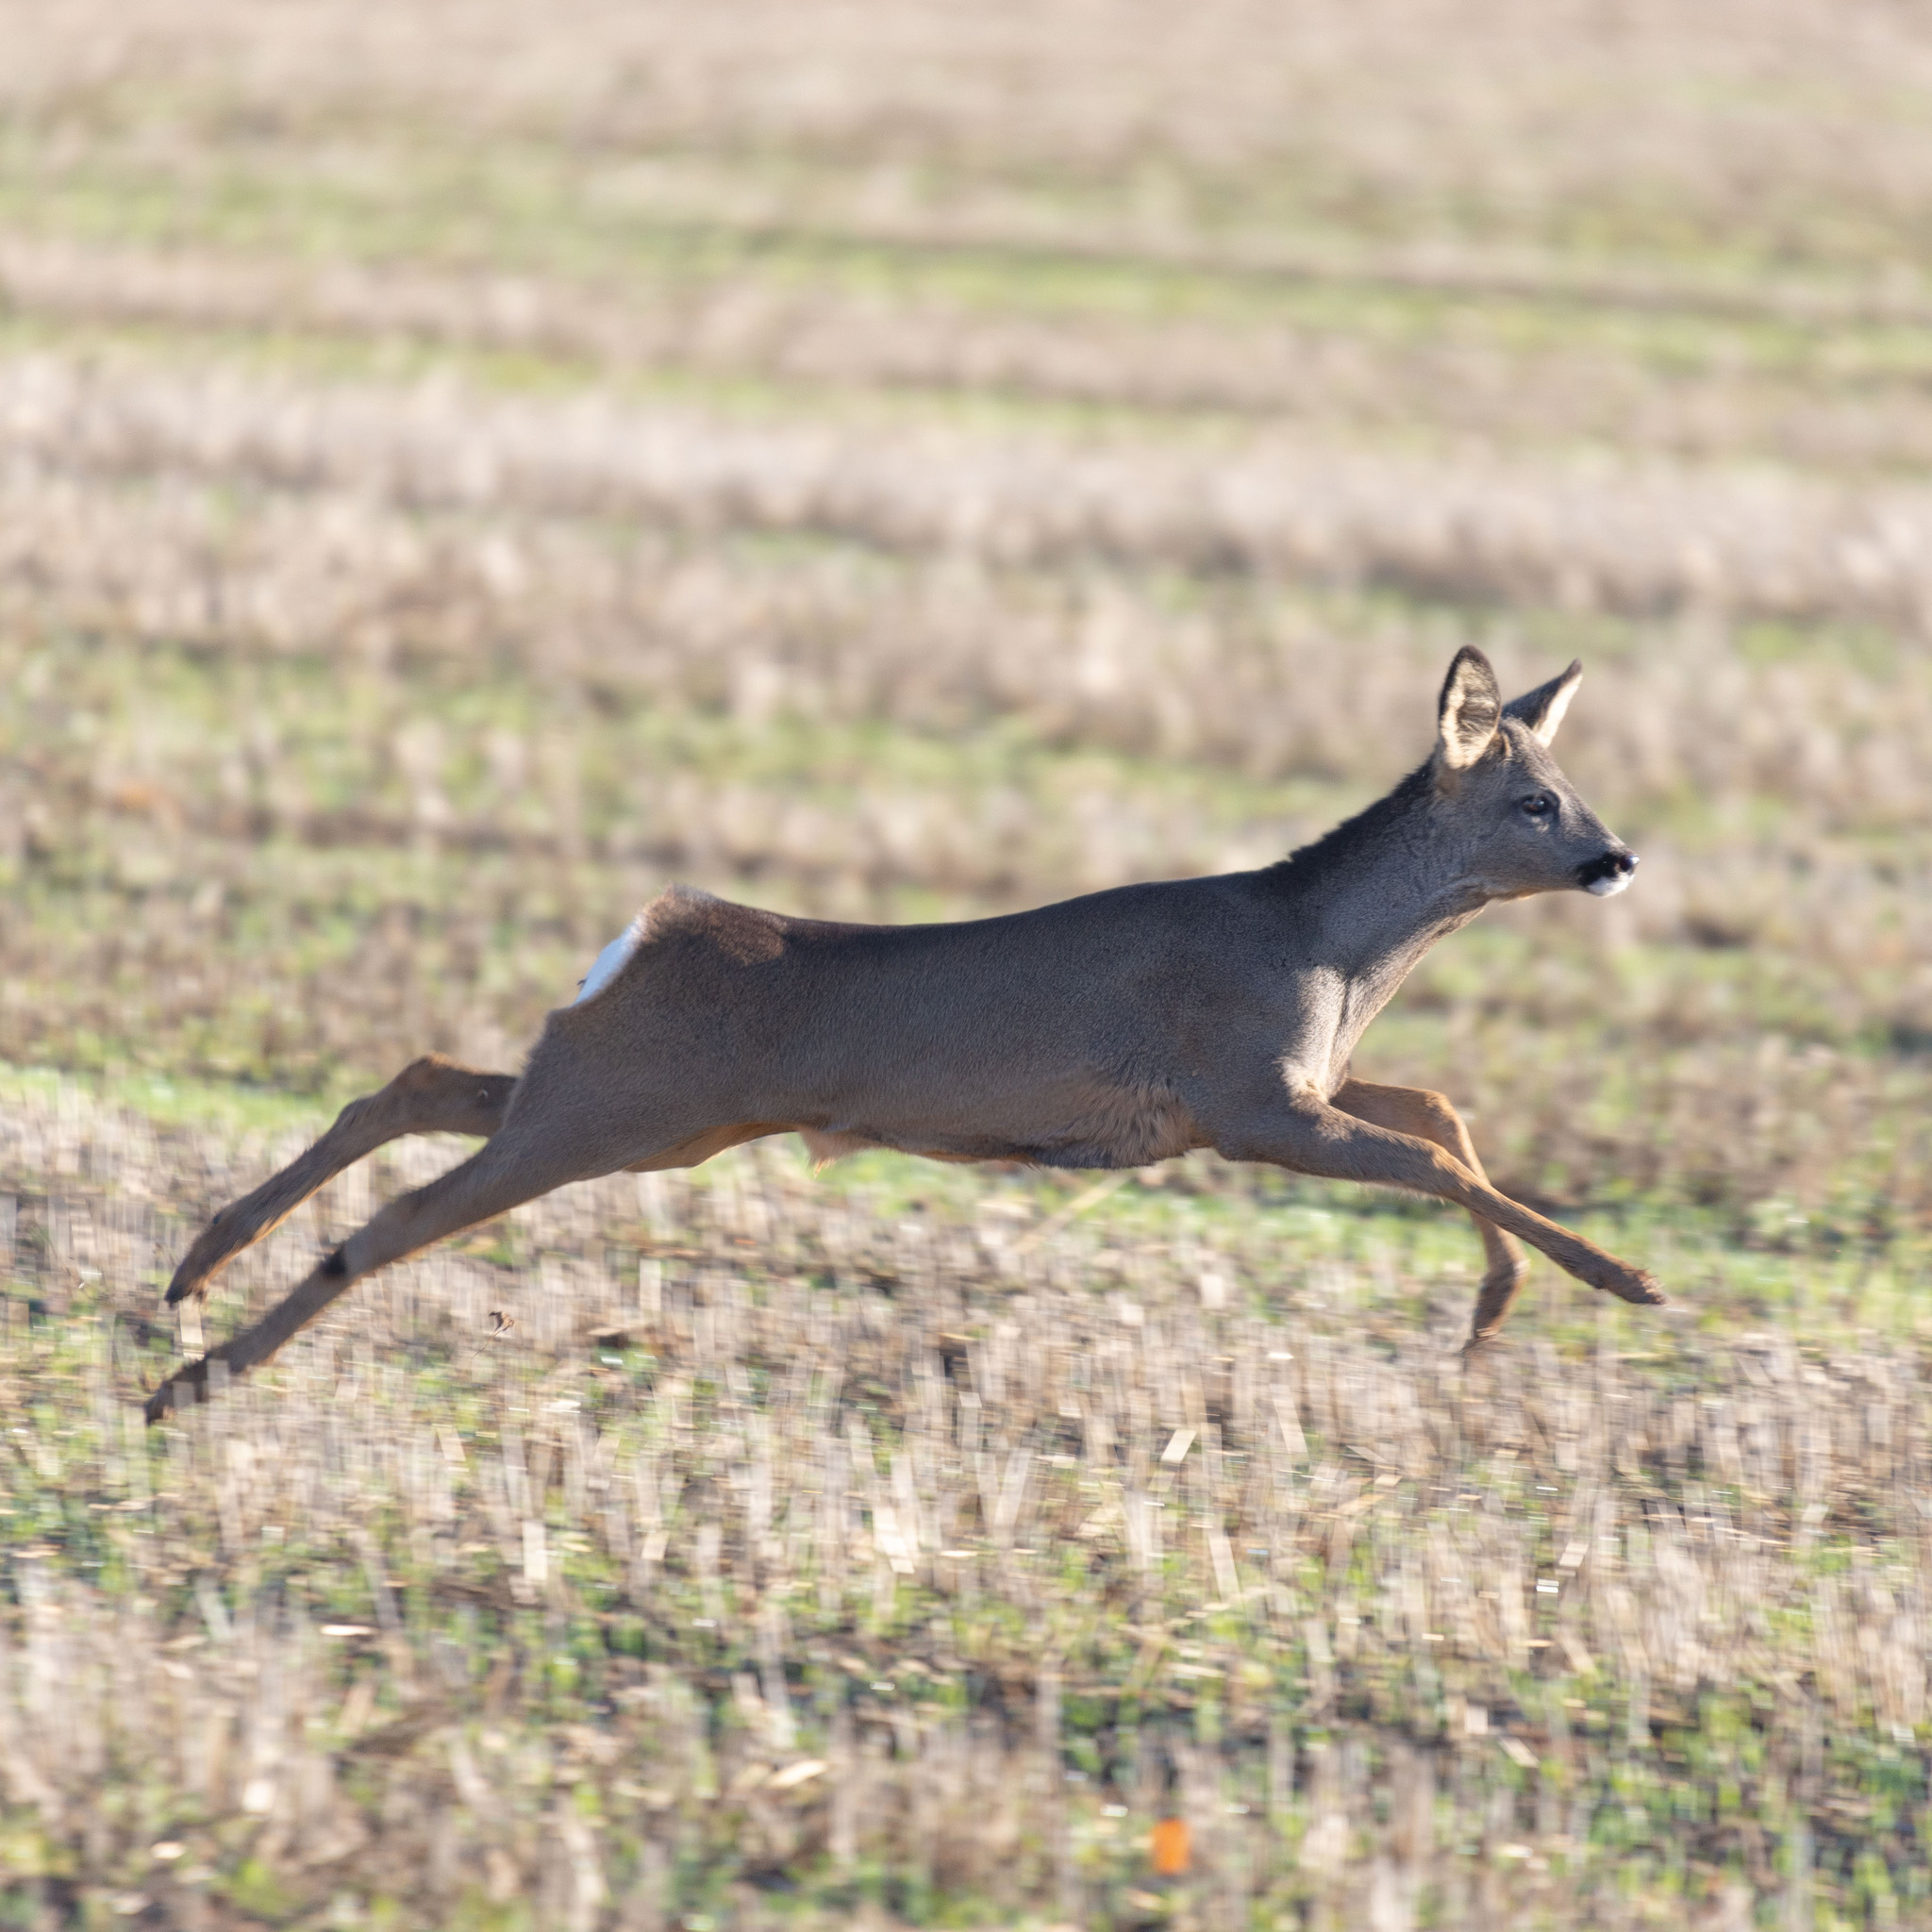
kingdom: Animalia
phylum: Chordata
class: Mammalia
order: Artiodactyla
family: Cervidae
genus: Capreolus
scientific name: Capreolus capreolus
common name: Western roe deer
